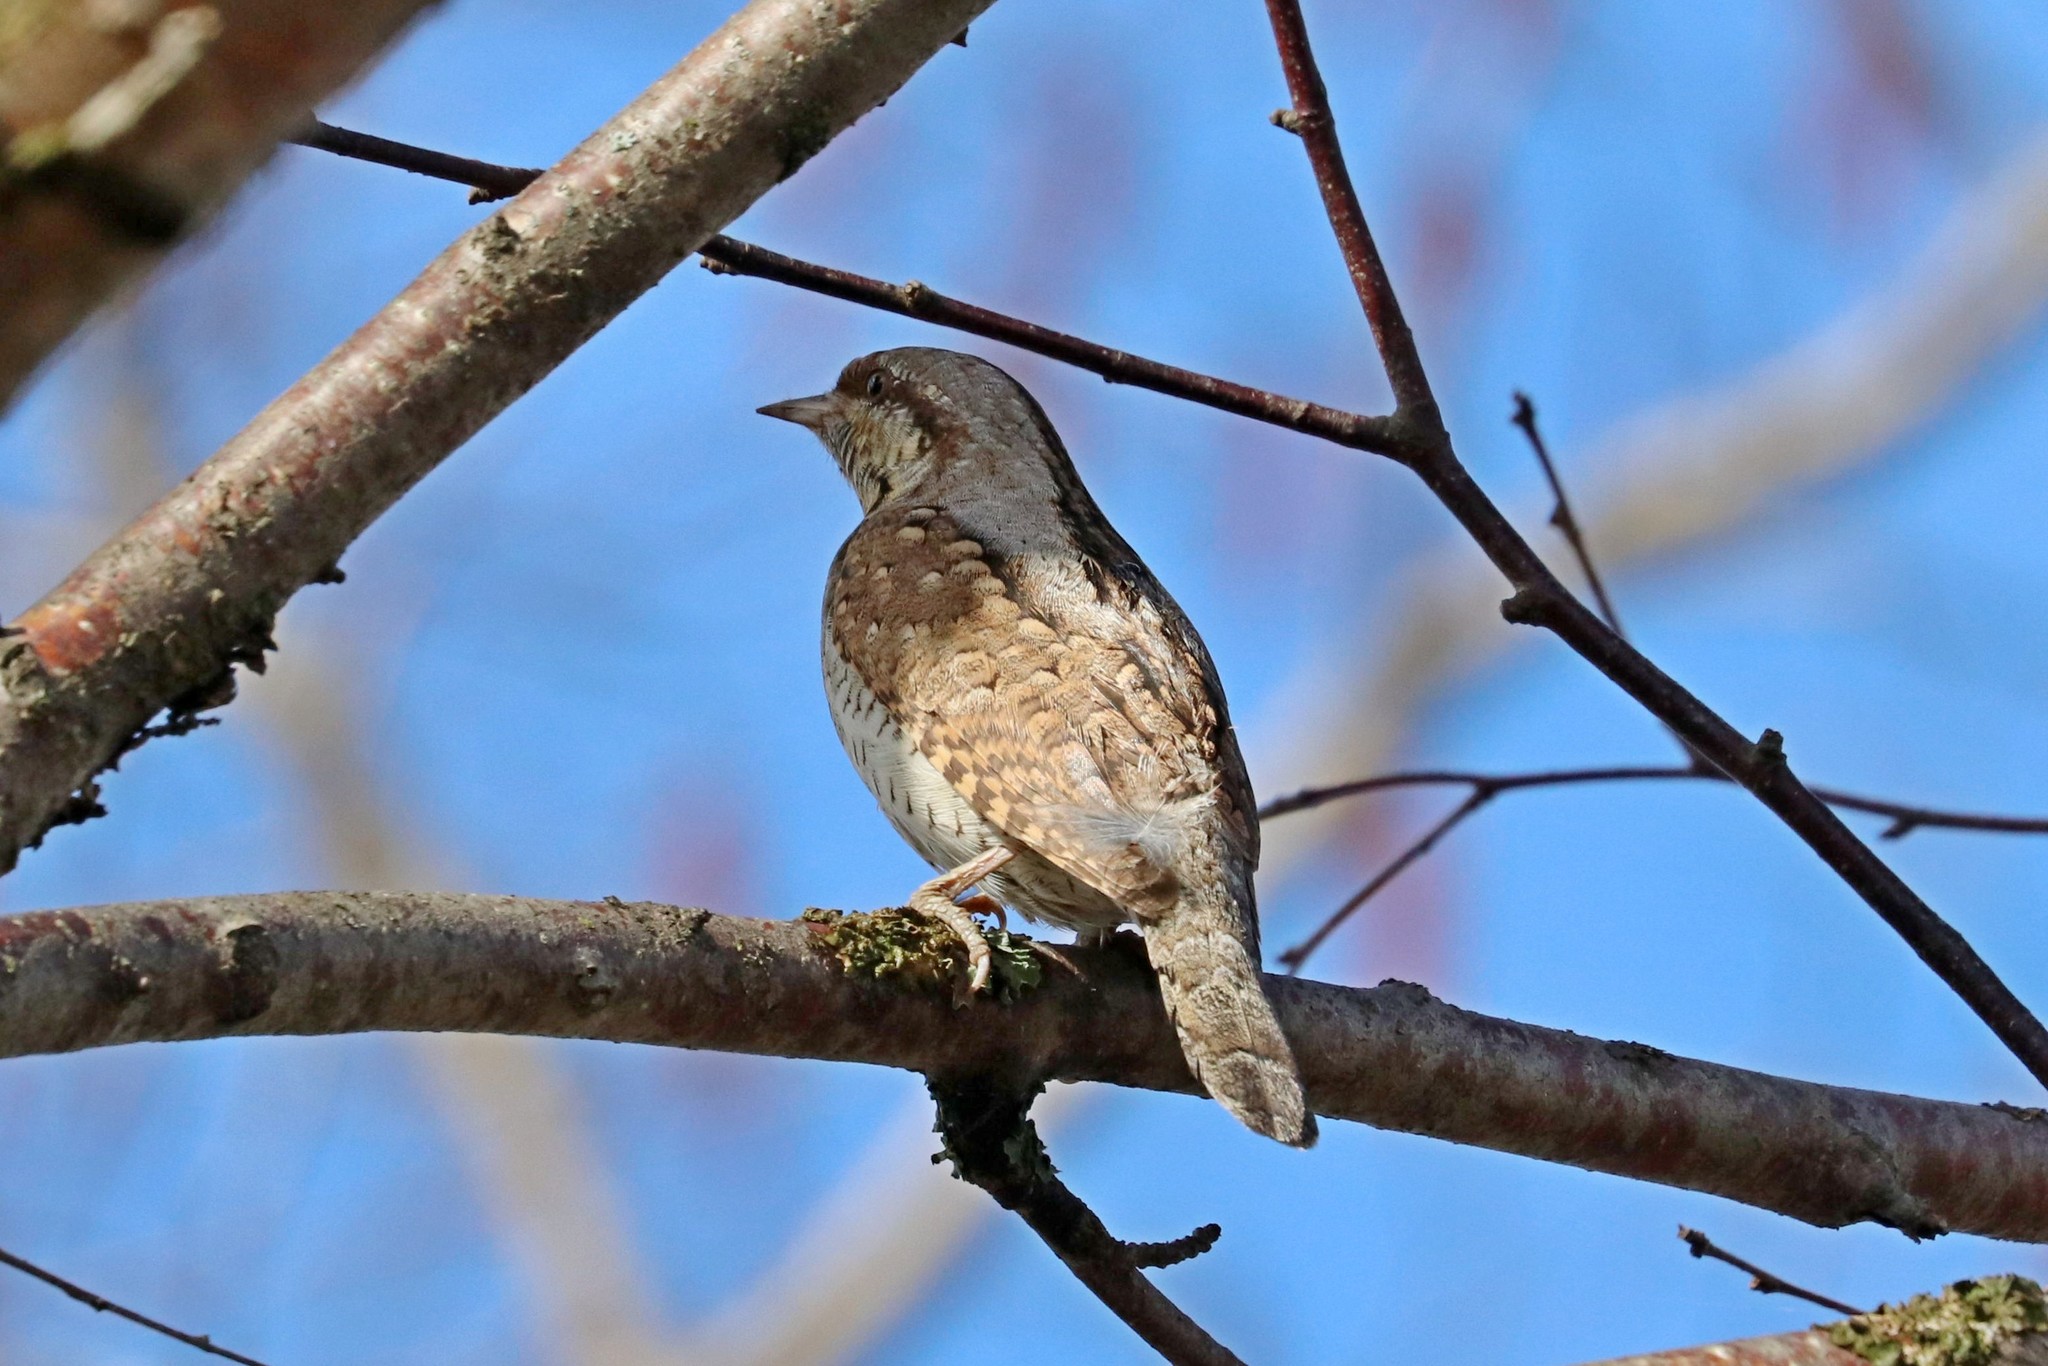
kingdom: Animalia
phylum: Chordata
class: Aves
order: Piciformes
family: Picidae
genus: Jynx
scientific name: Jynx torquilla
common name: Eurasian wryneck
